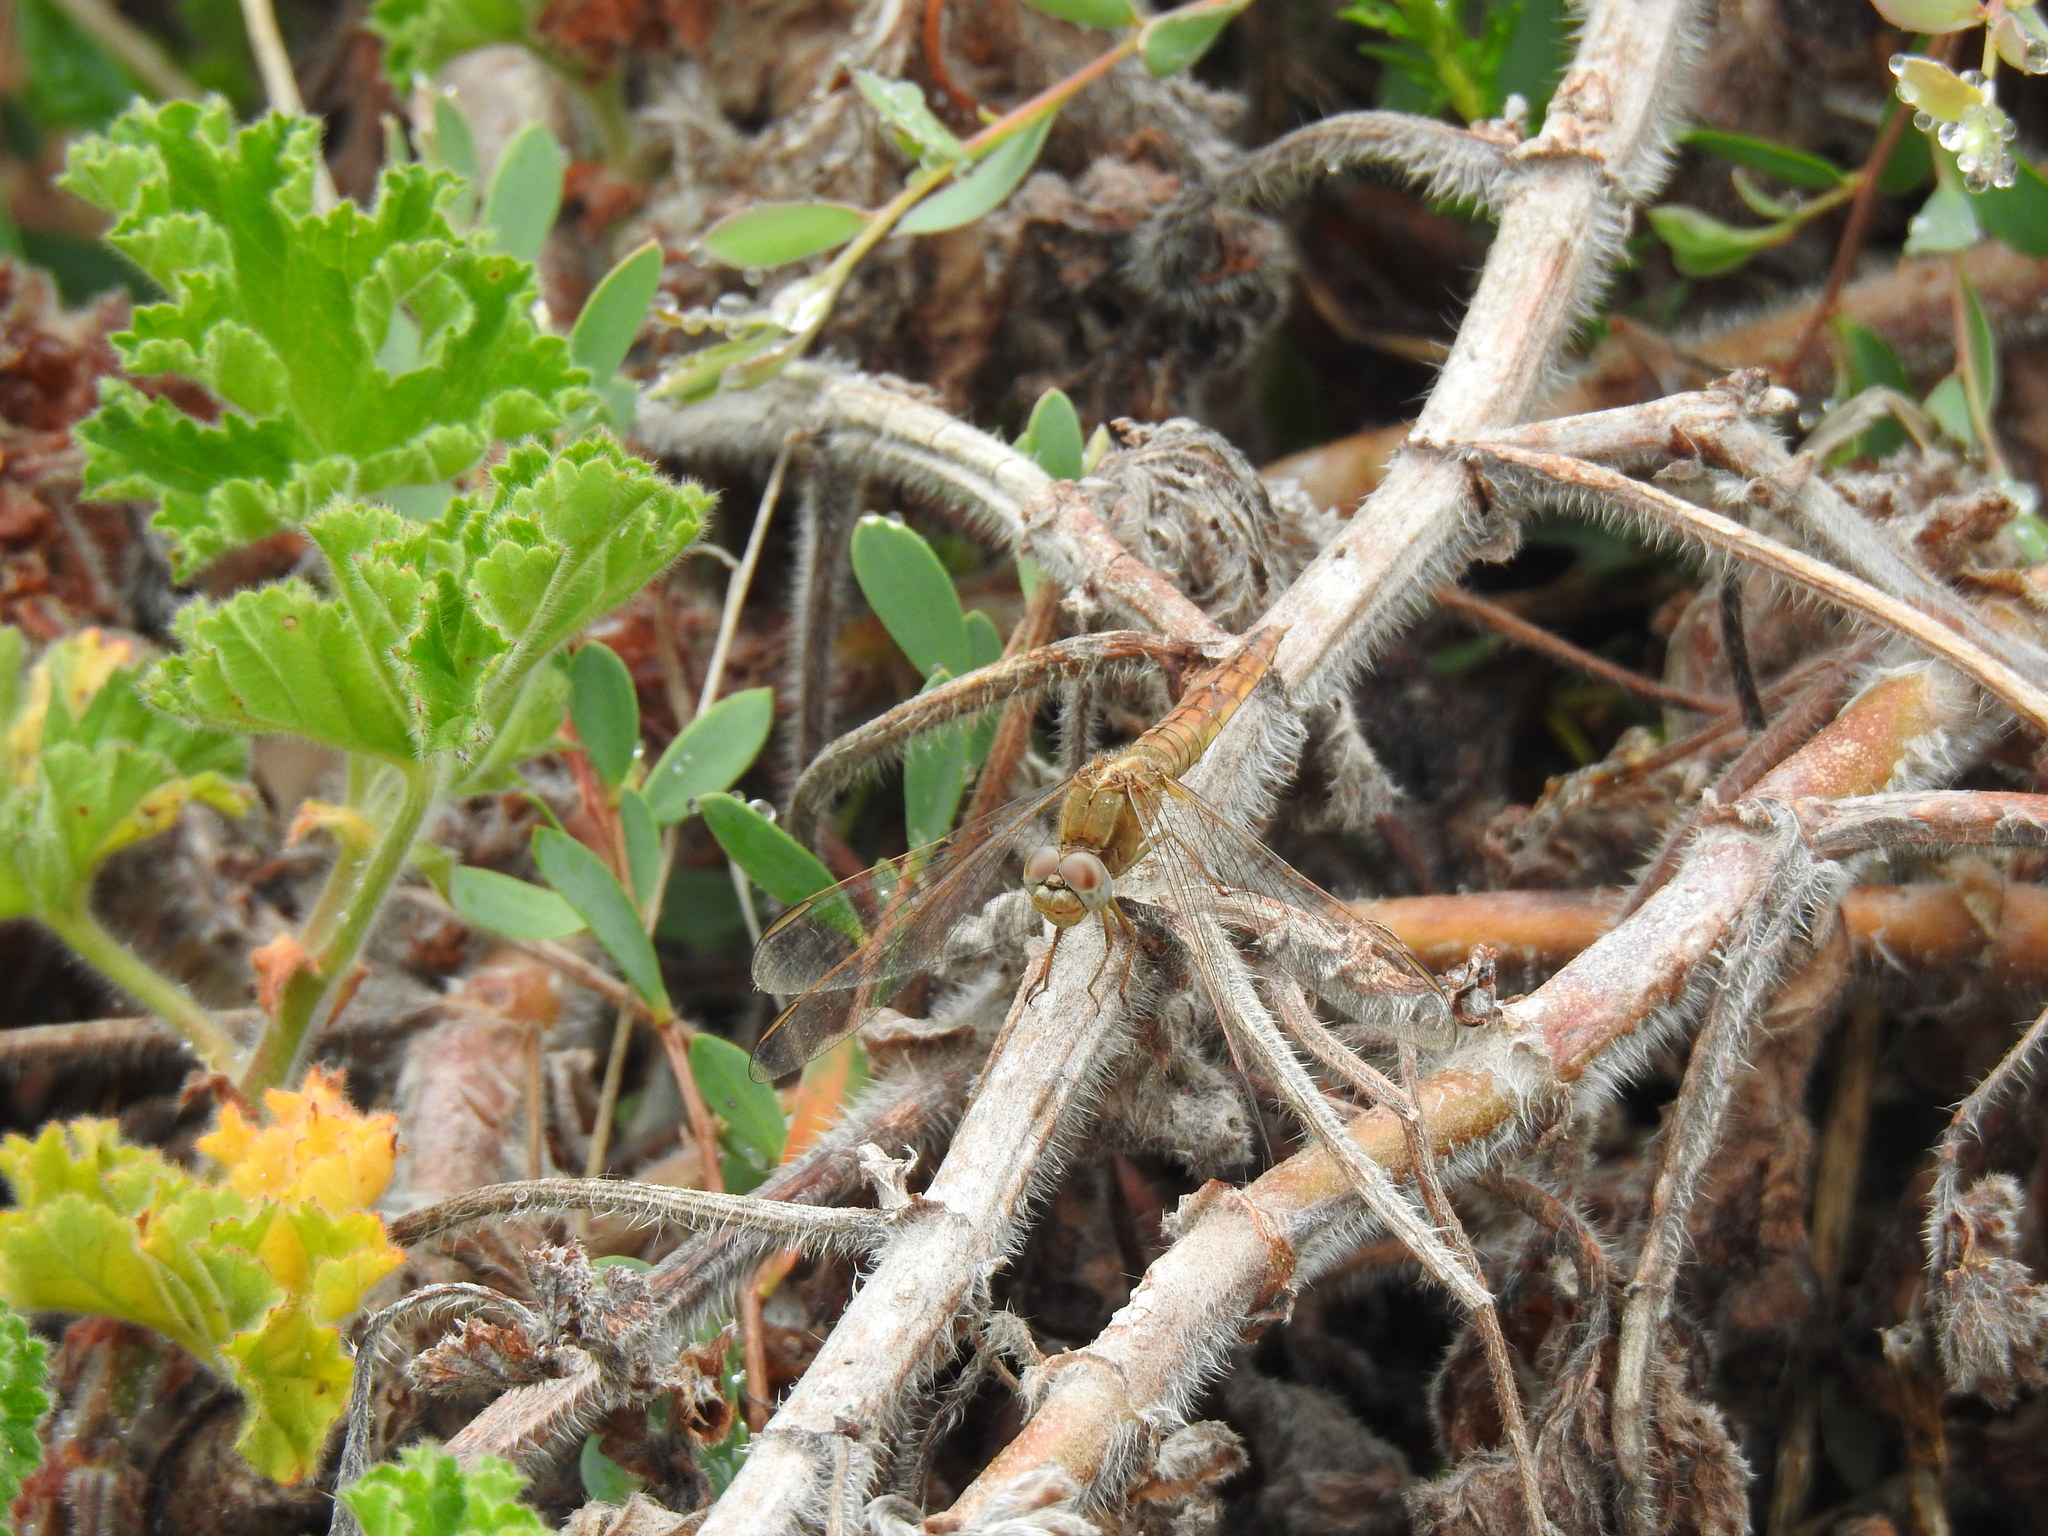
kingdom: Animalia
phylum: Arthropoda
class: Insecta
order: Odonata
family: Libellulidae
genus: Crocothemis
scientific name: Crocothemis erythraea
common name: Scarlet dragonfly
